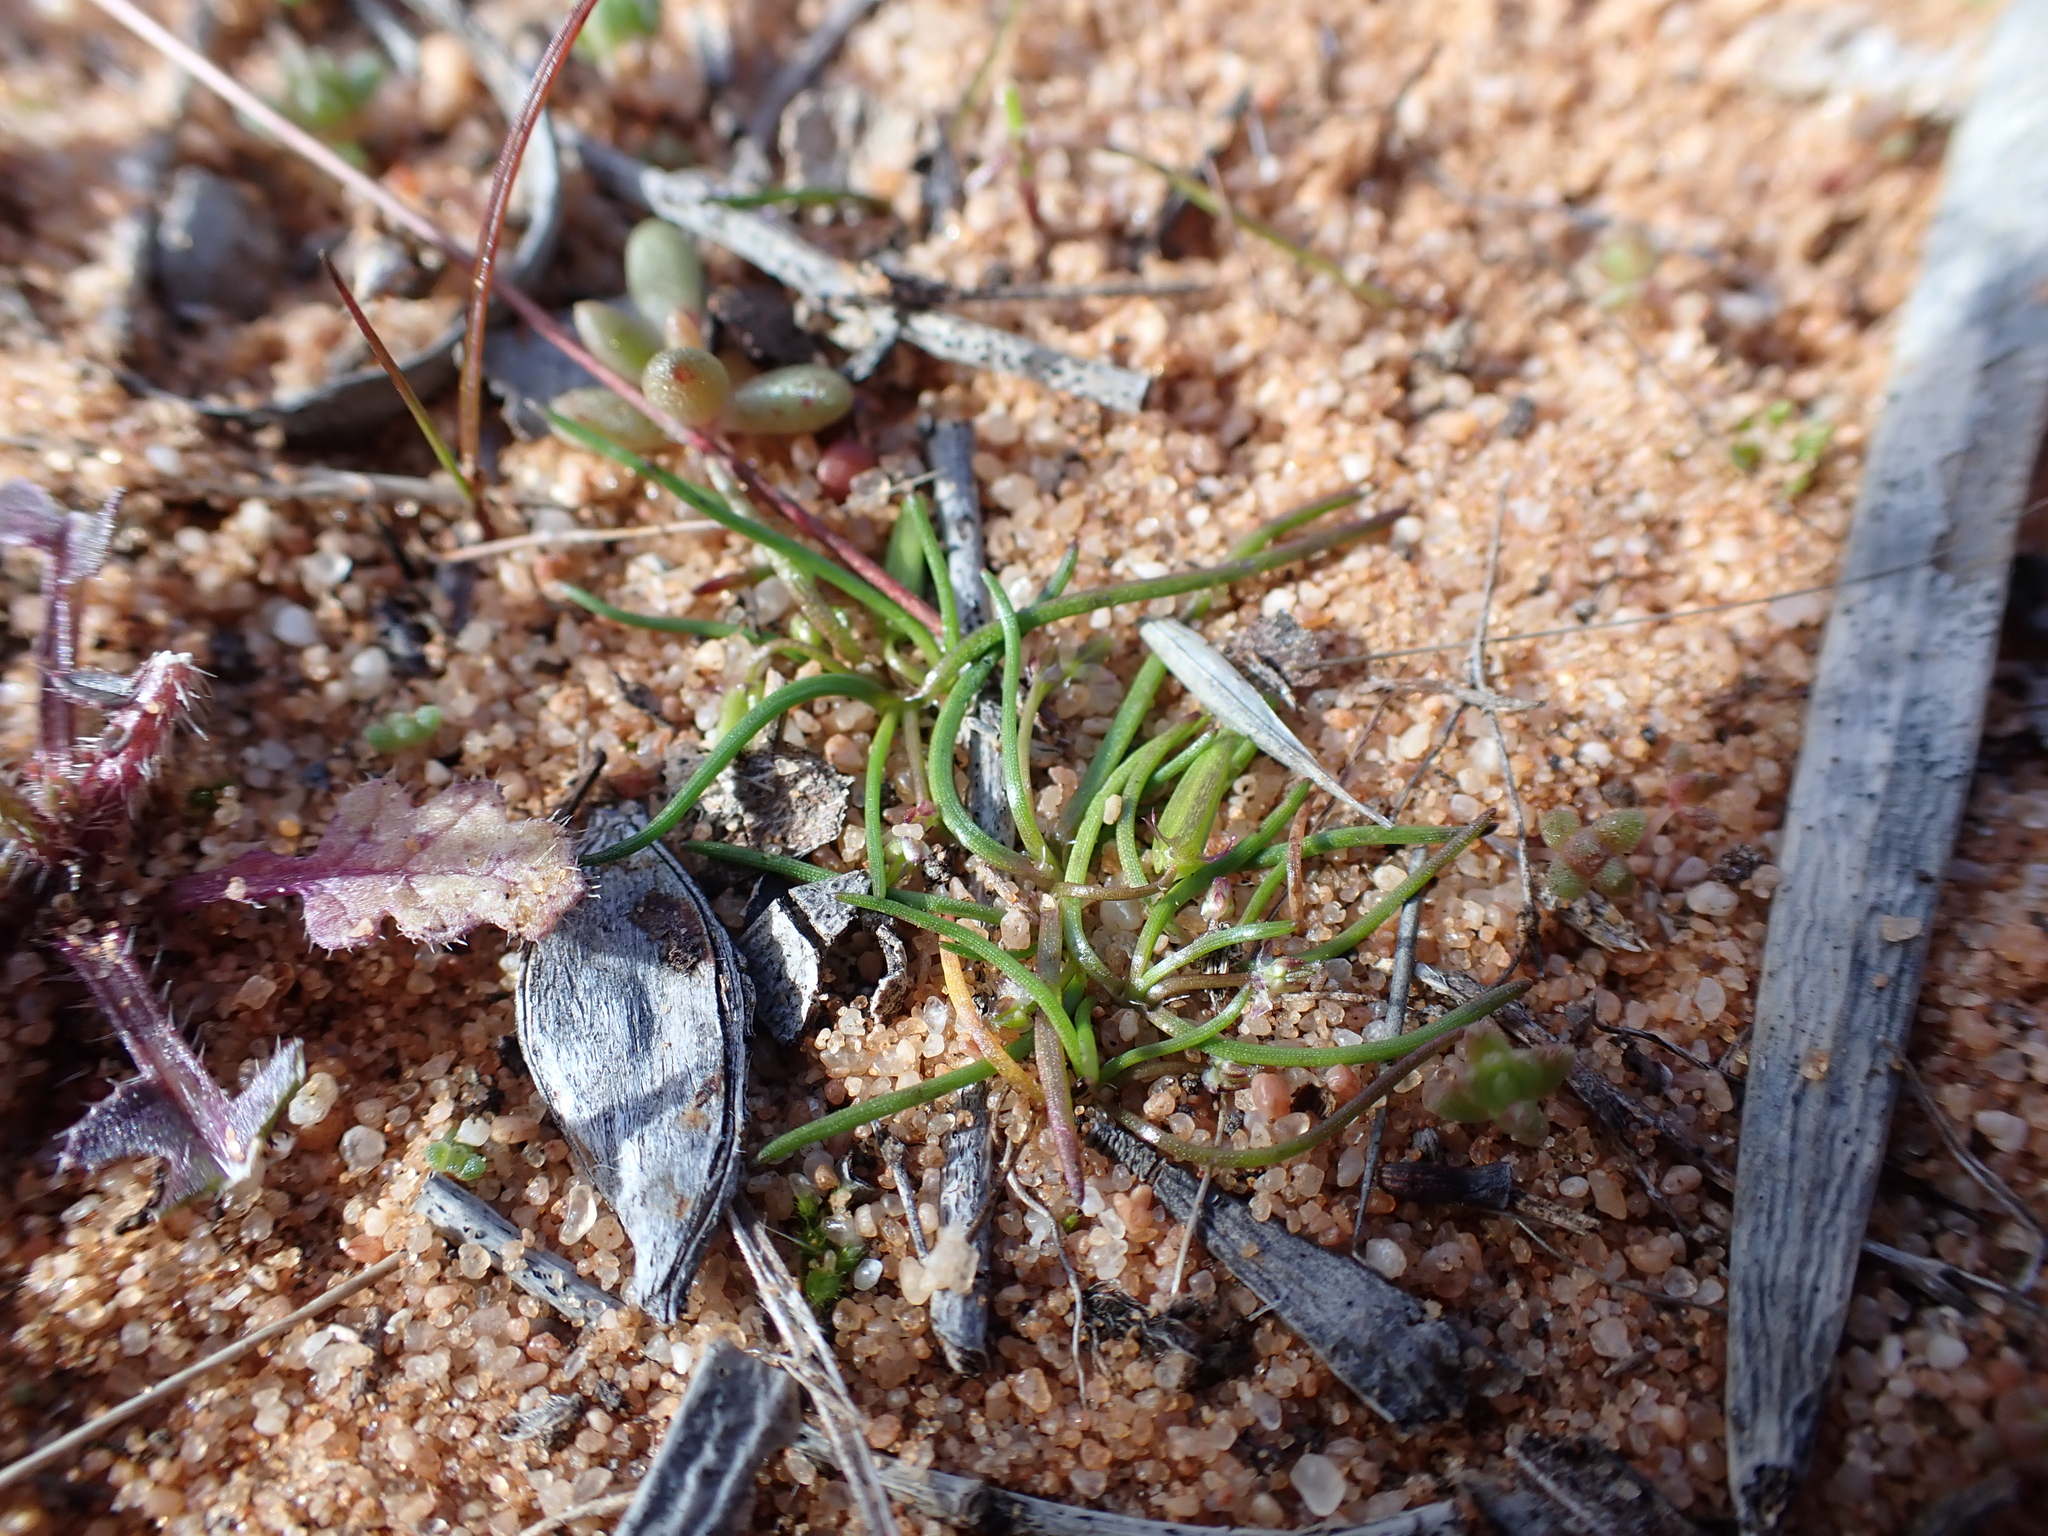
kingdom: Plantae
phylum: Tracheophyta
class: Liliopsida
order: Alismatales
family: Juncaginaceae
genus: Triglochin
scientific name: Triglochin isingiana
